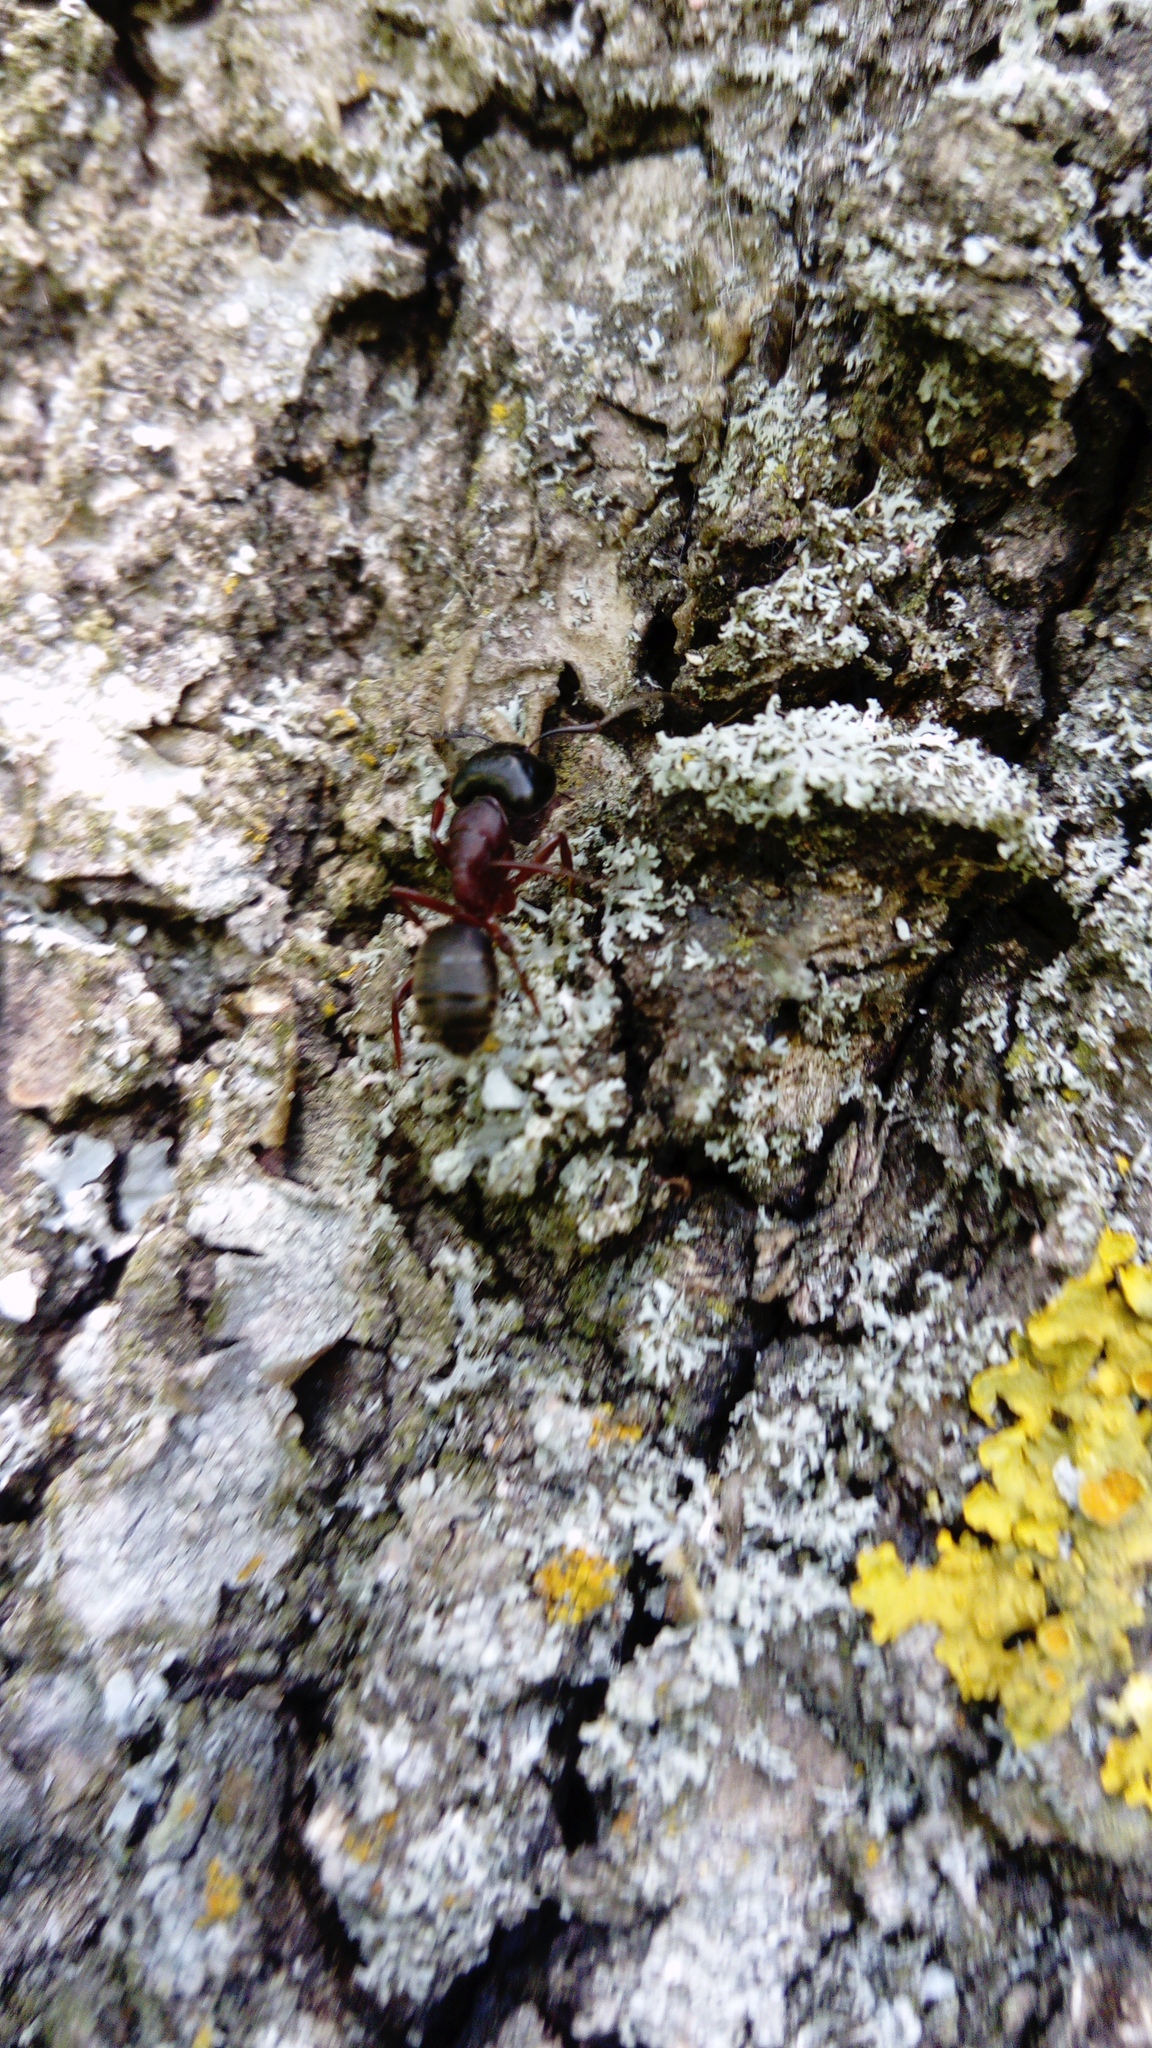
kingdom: Animalia
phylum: Arthropoda
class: Insecta
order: Hymenoptera
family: Formicidae
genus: Camponotus
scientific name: Camponotus herculeanus
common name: Hercules ant
